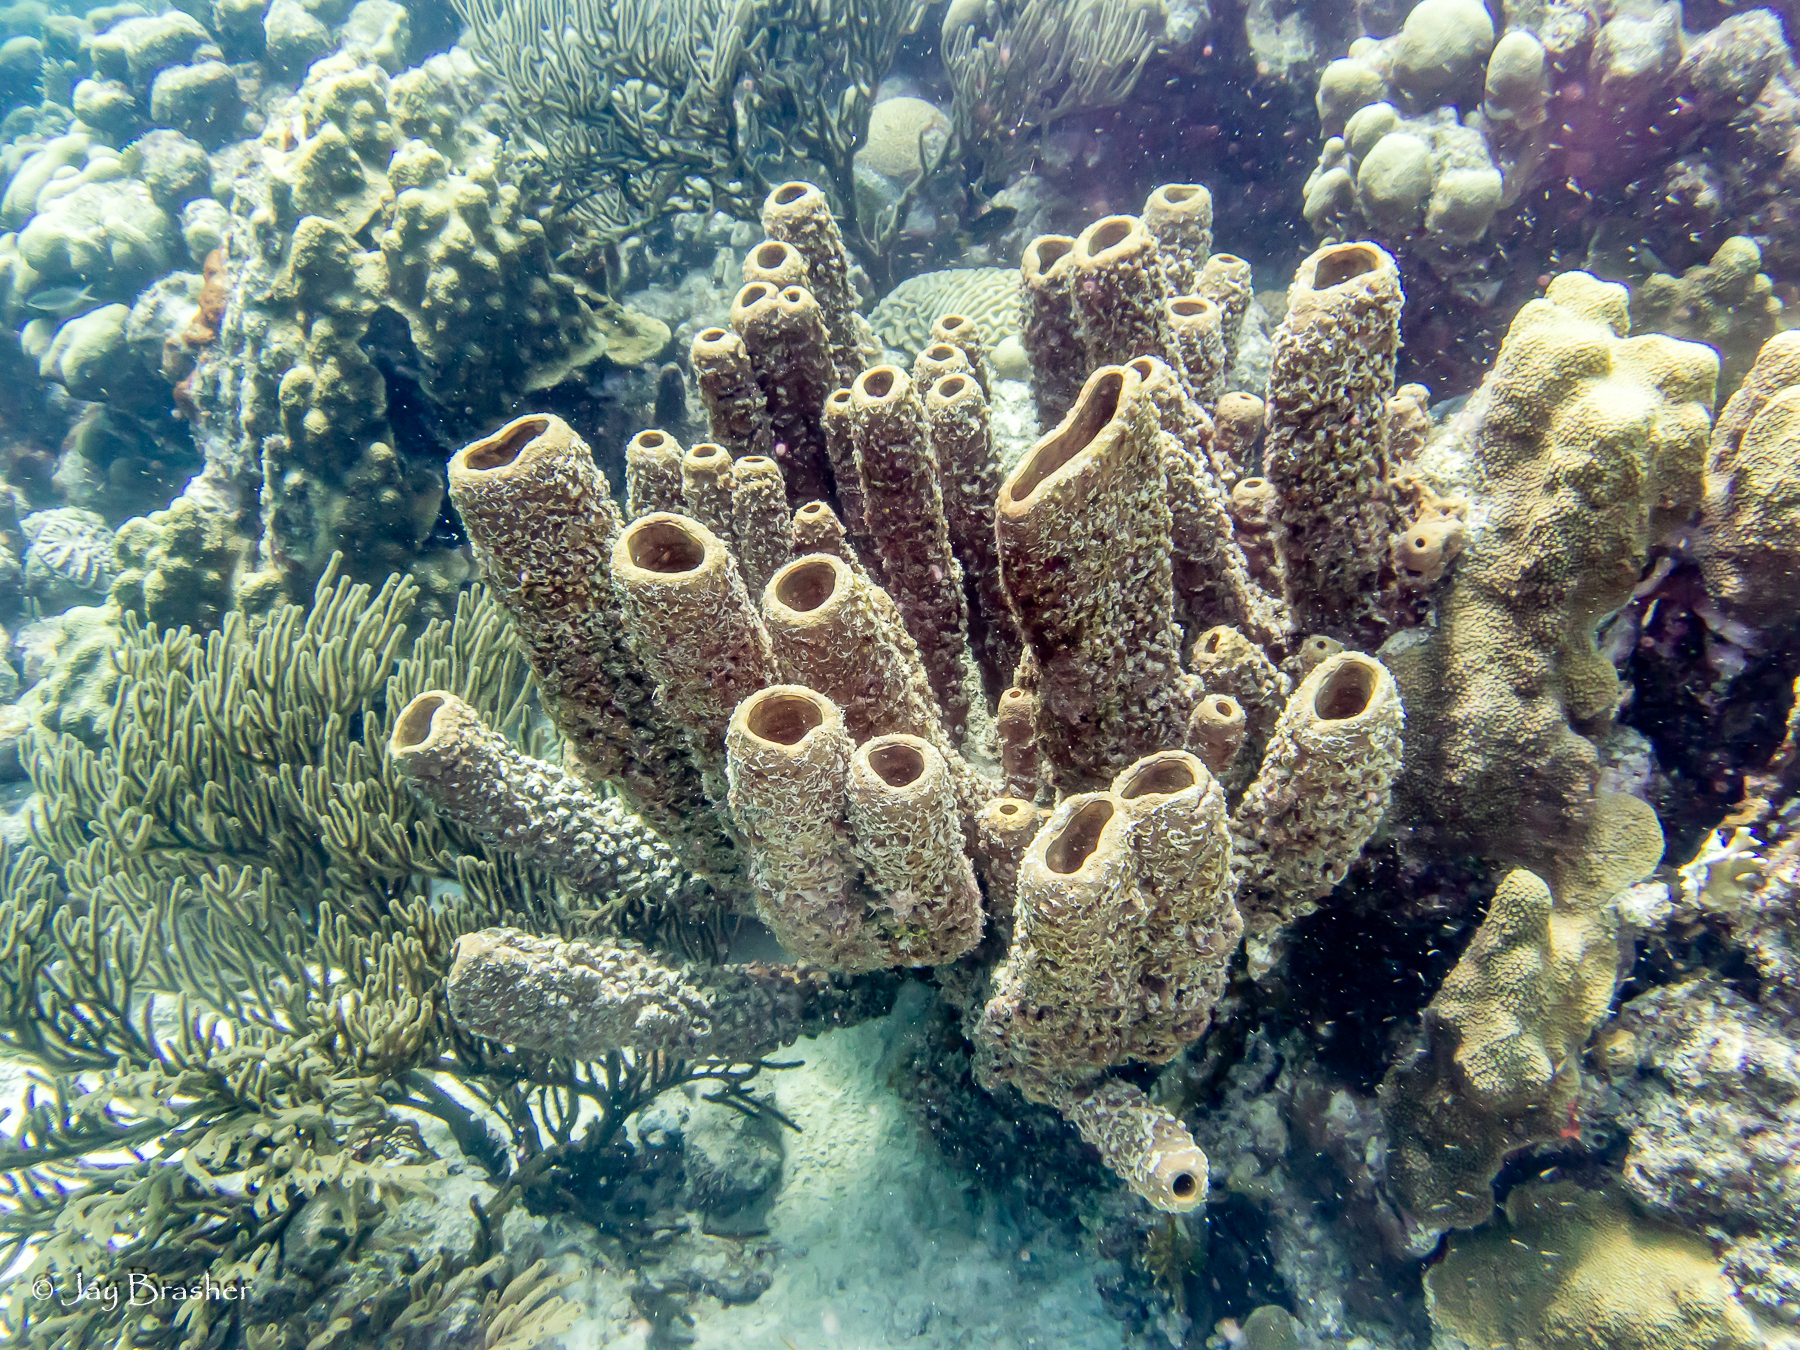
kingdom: Animalia
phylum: Porifera
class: Demospongiae
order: Verongiida
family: Aplysinidae
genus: Aplysina
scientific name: Aplysina archeri
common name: Stove-pipe sponge
